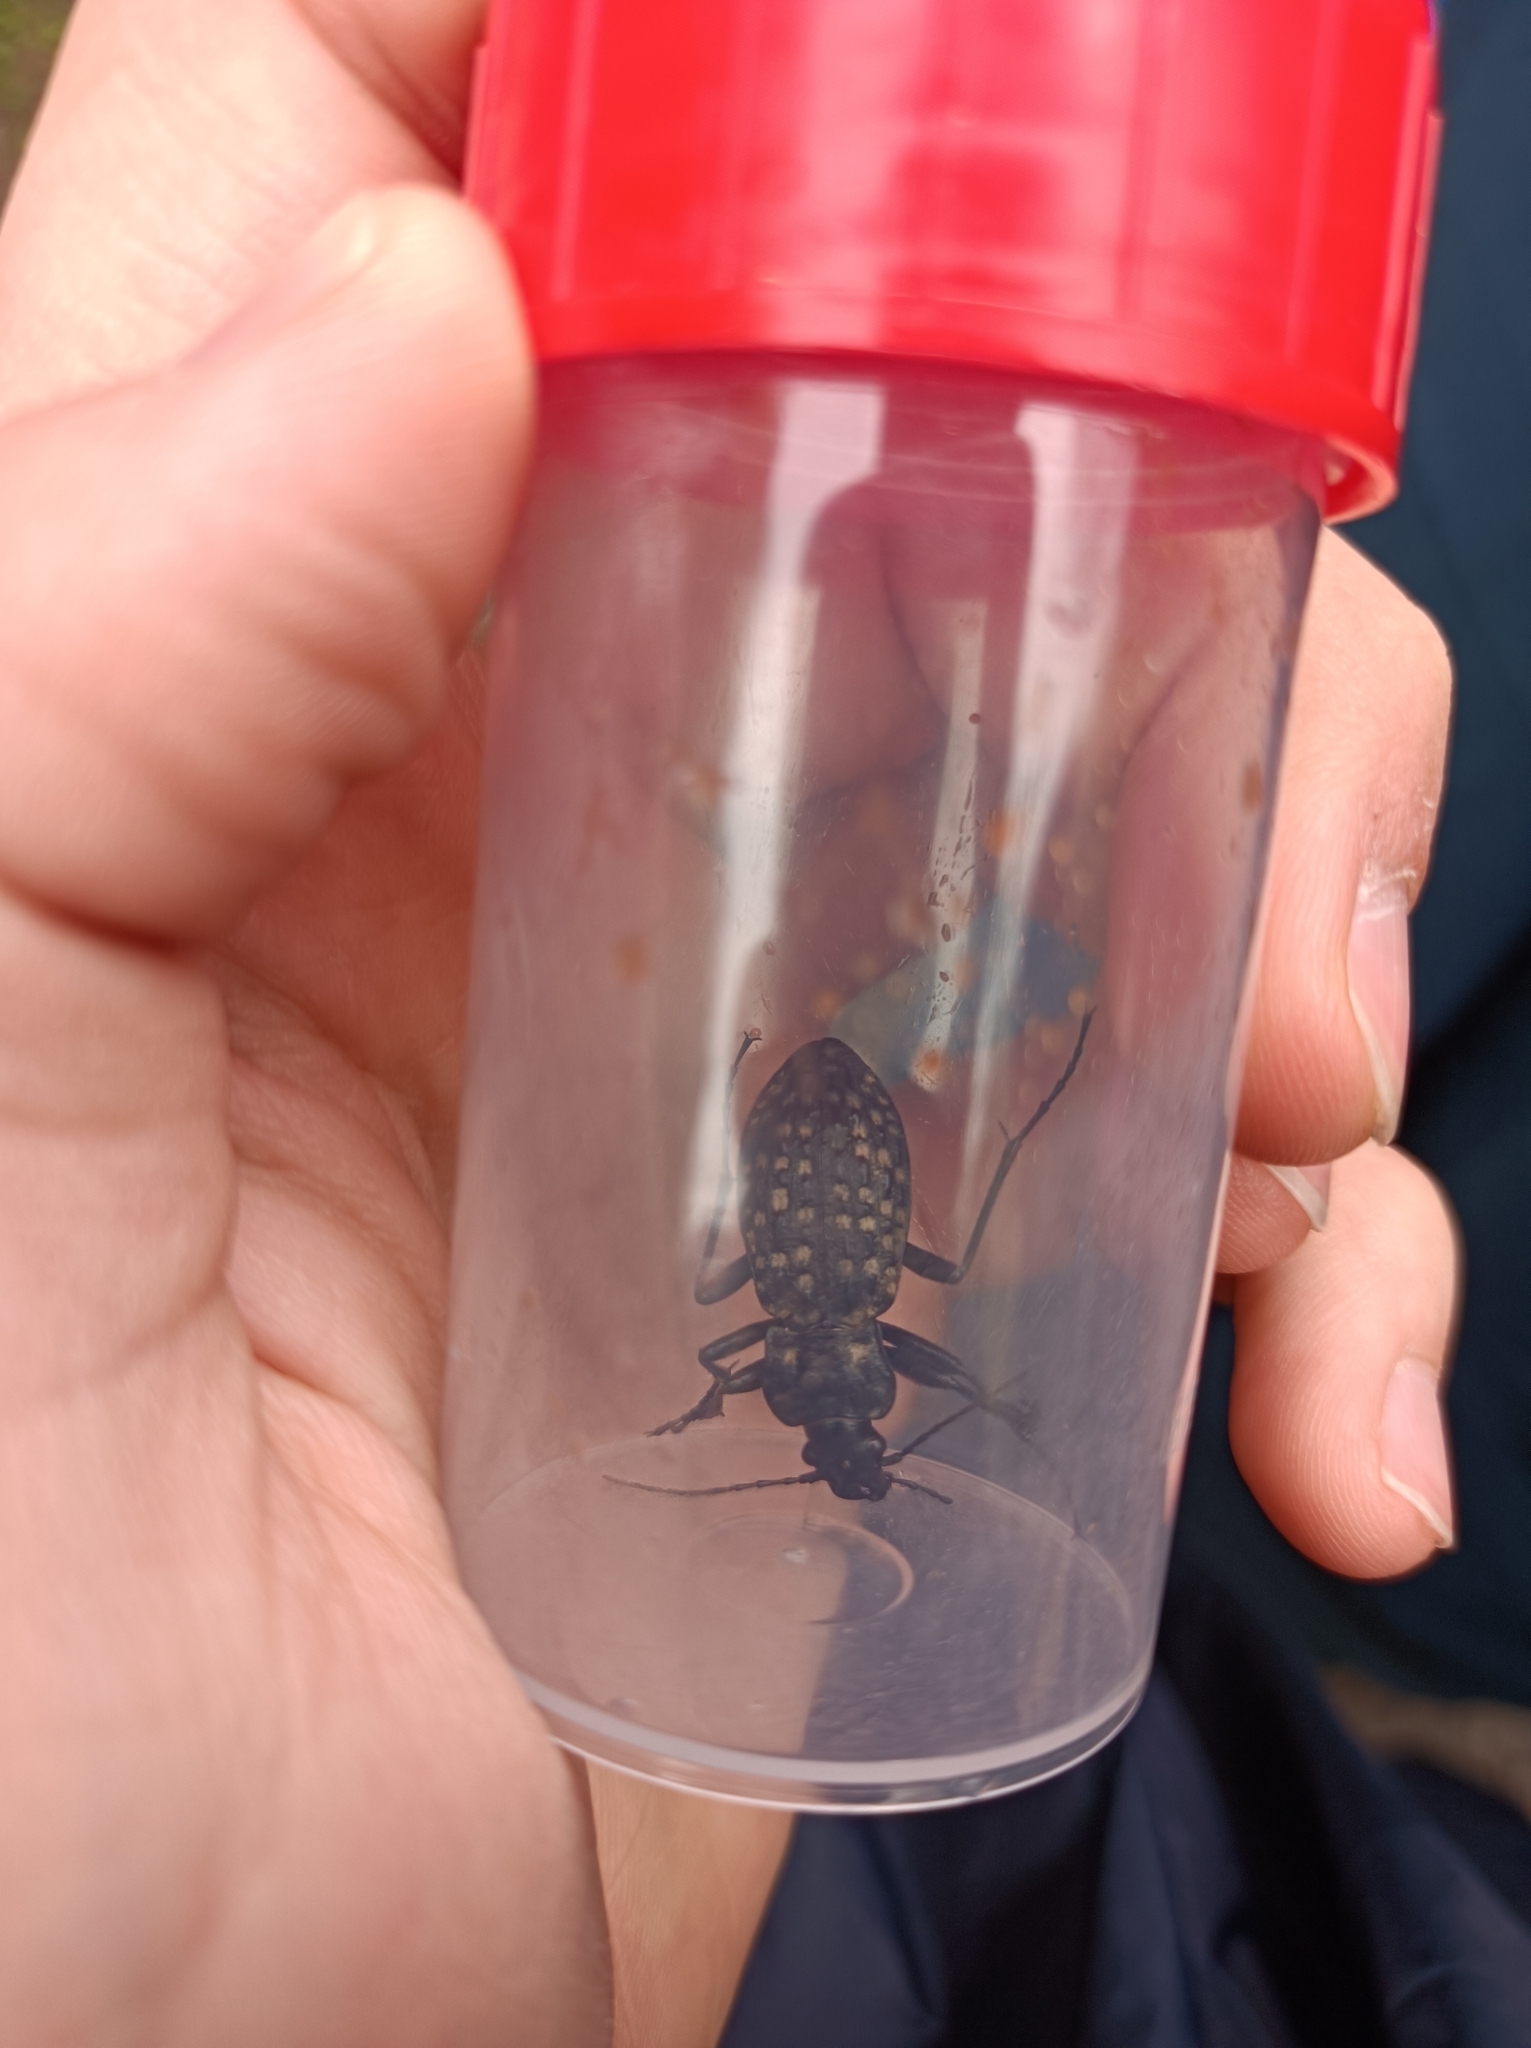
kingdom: Animalia
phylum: Arthropoda
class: Insecta
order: Coleoptera
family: Carabidae
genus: Carabus
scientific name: Carabus variolosus
